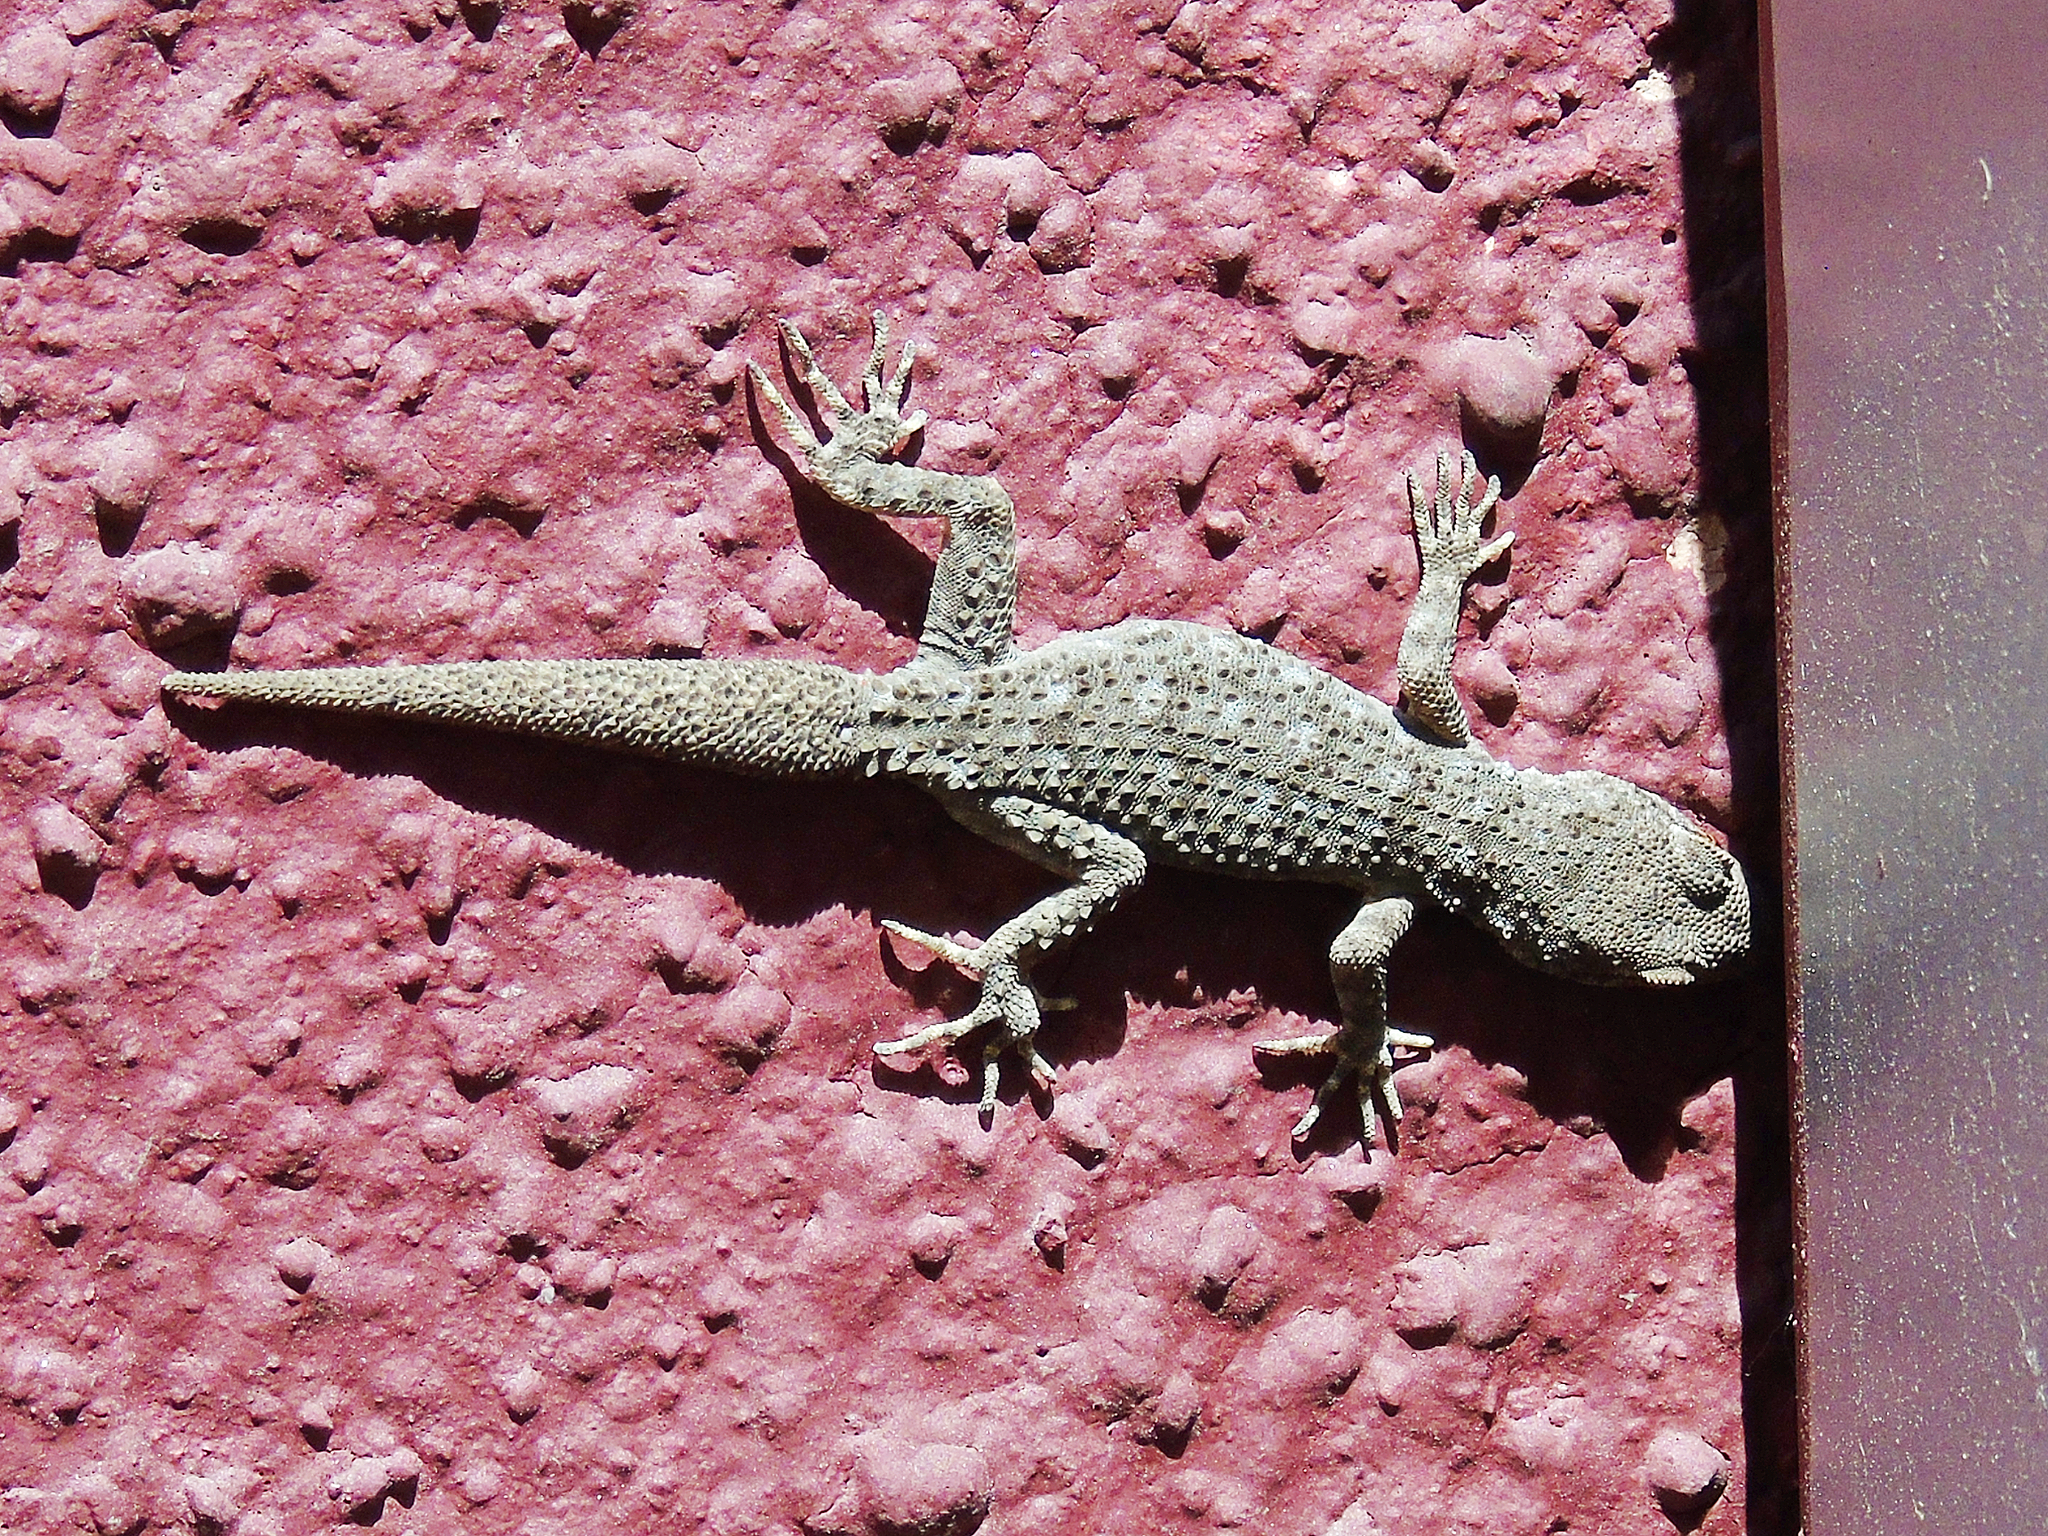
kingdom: Animalia
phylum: Chordata
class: Squamata
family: Gekkonidae
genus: Mediodactylus
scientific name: Mediodactylus kotschyi
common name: Kotschy's gecko
